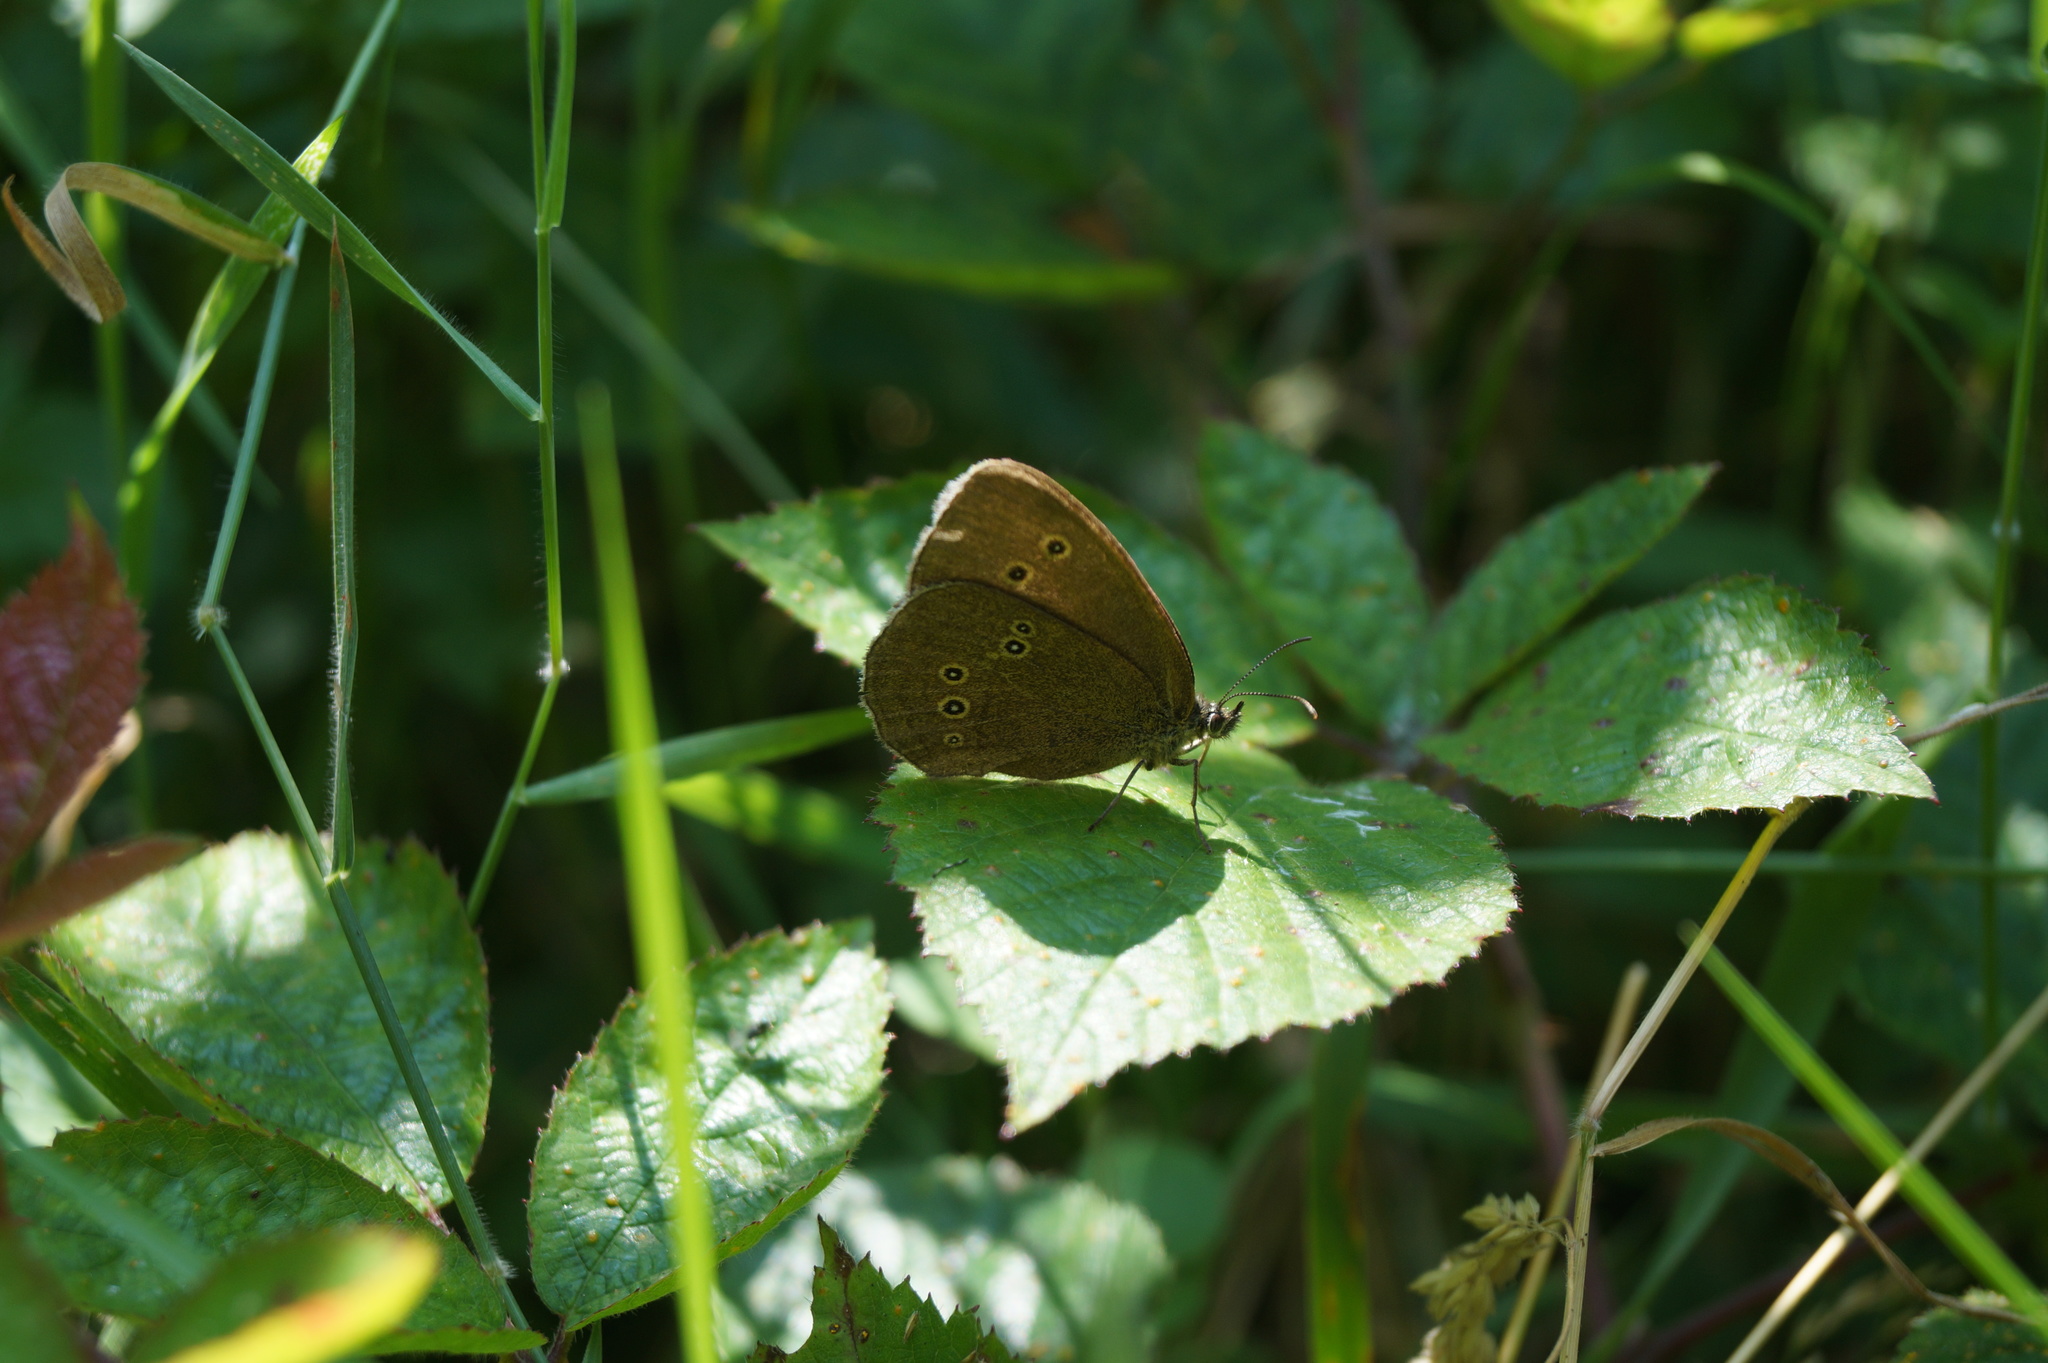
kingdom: Animalia
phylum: Arthropoda
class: Insecta
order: Lepidoptera
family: Nymphalidae
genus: Aphantopus
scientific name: Aphantopus hyperantus
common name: Ringlet
